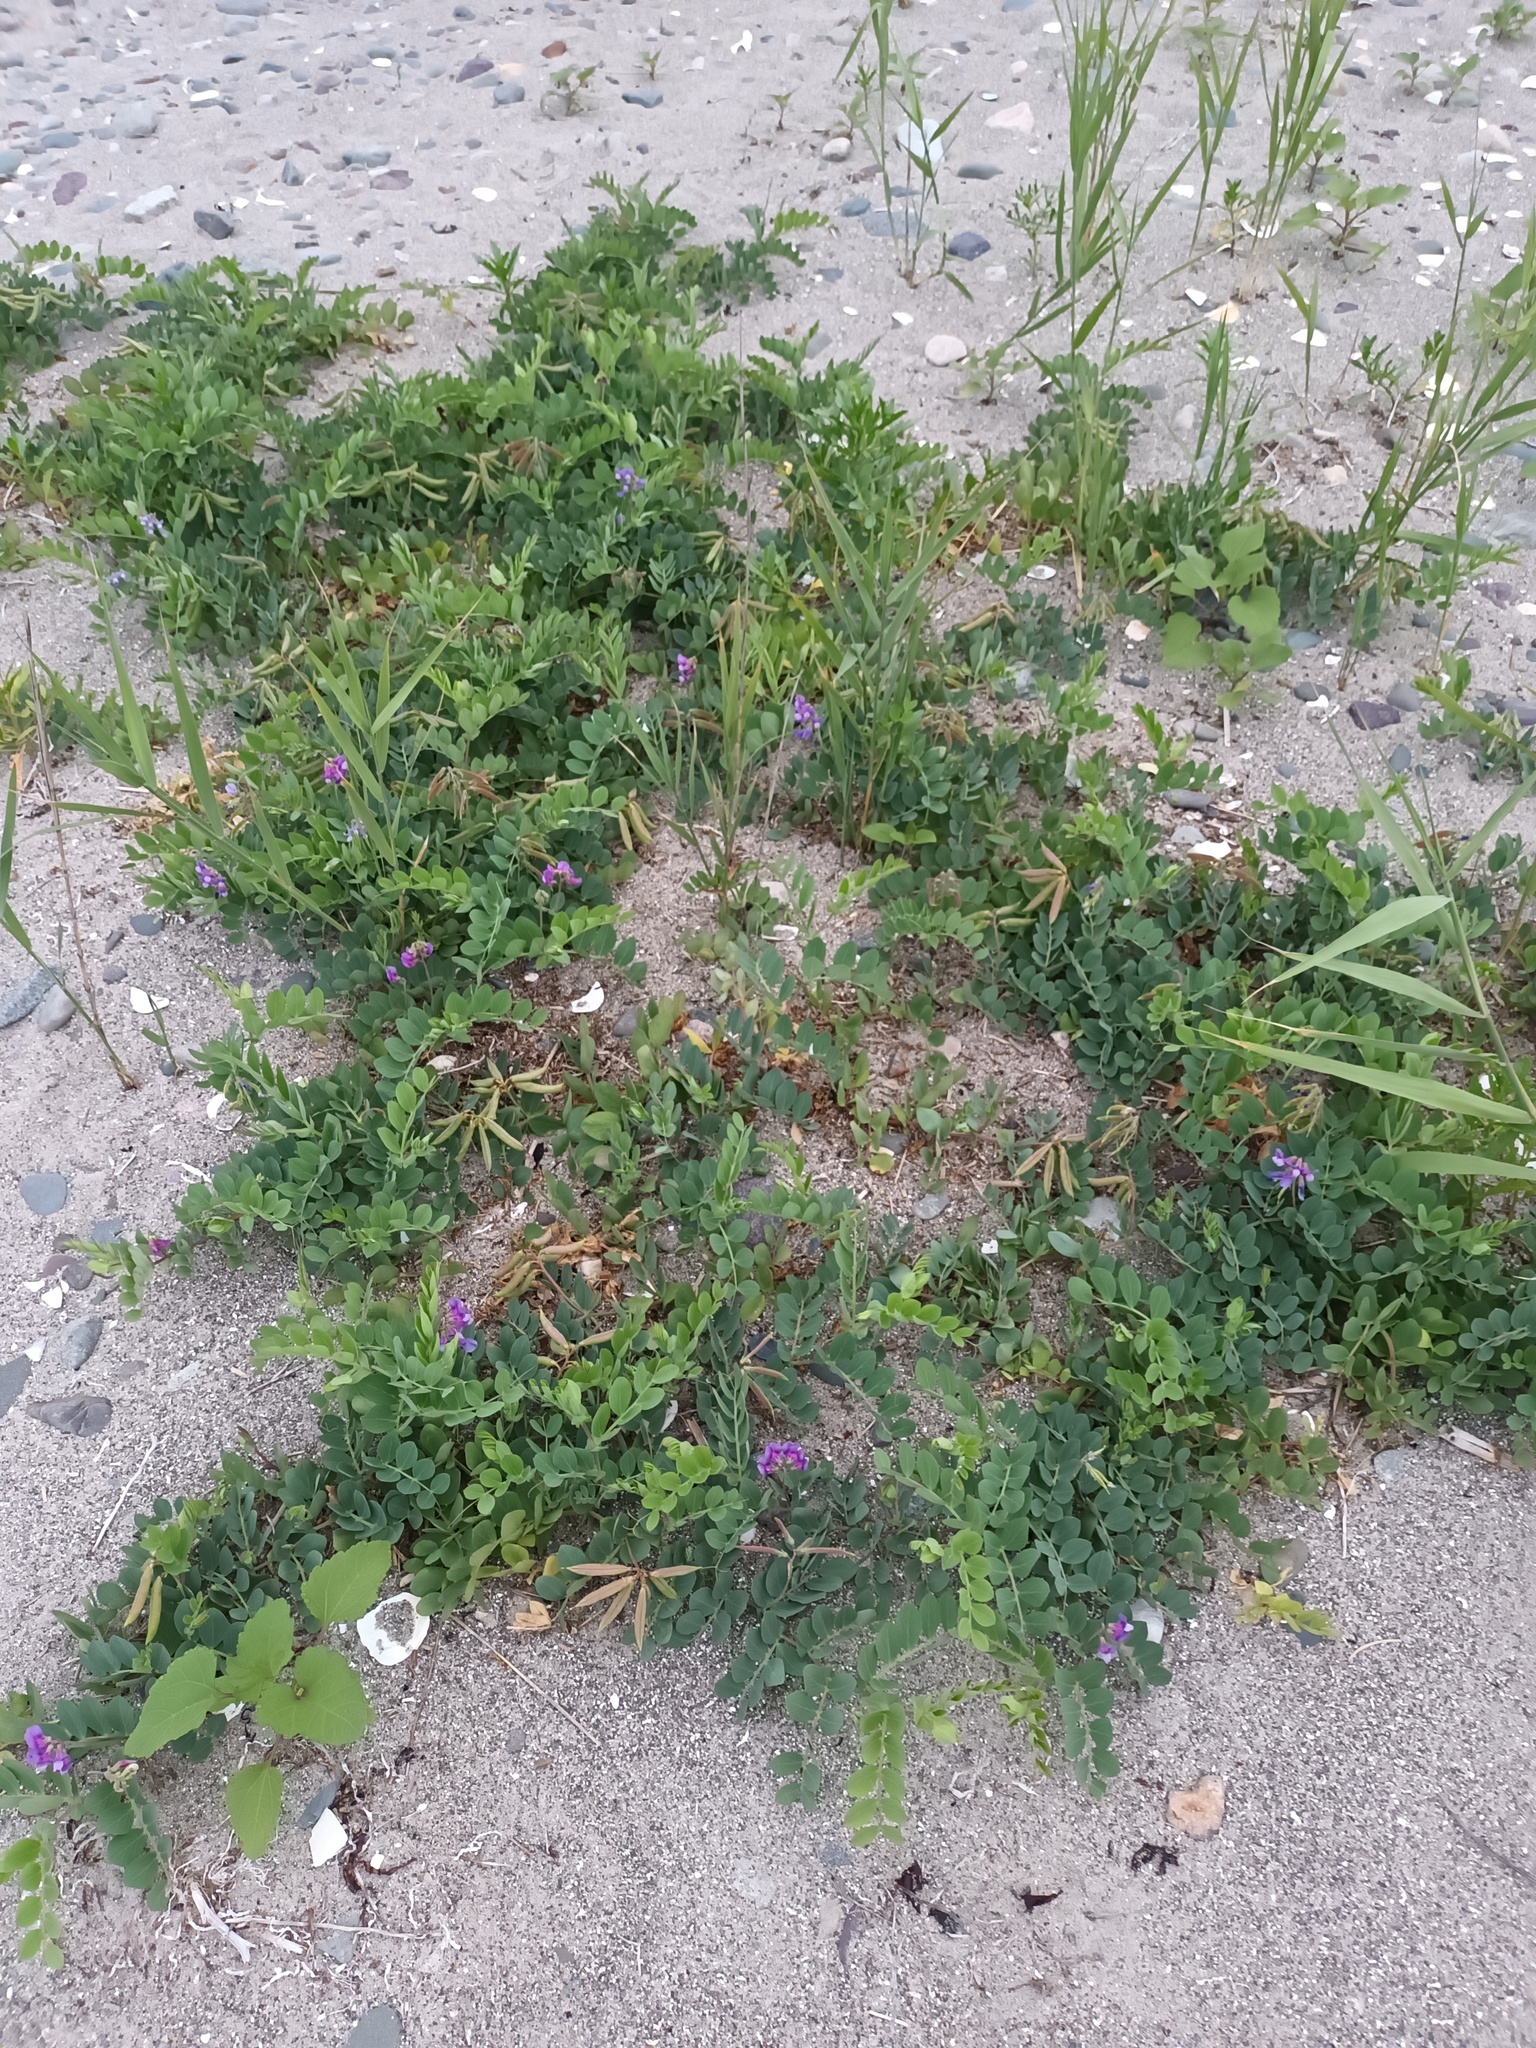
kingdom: Plantae
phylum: Tracheophyta
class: Magnoliopsida
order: Fabales
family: Fabaceae
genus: Lathyrus
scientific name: Lathyrus japonicus
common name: Sea pea
